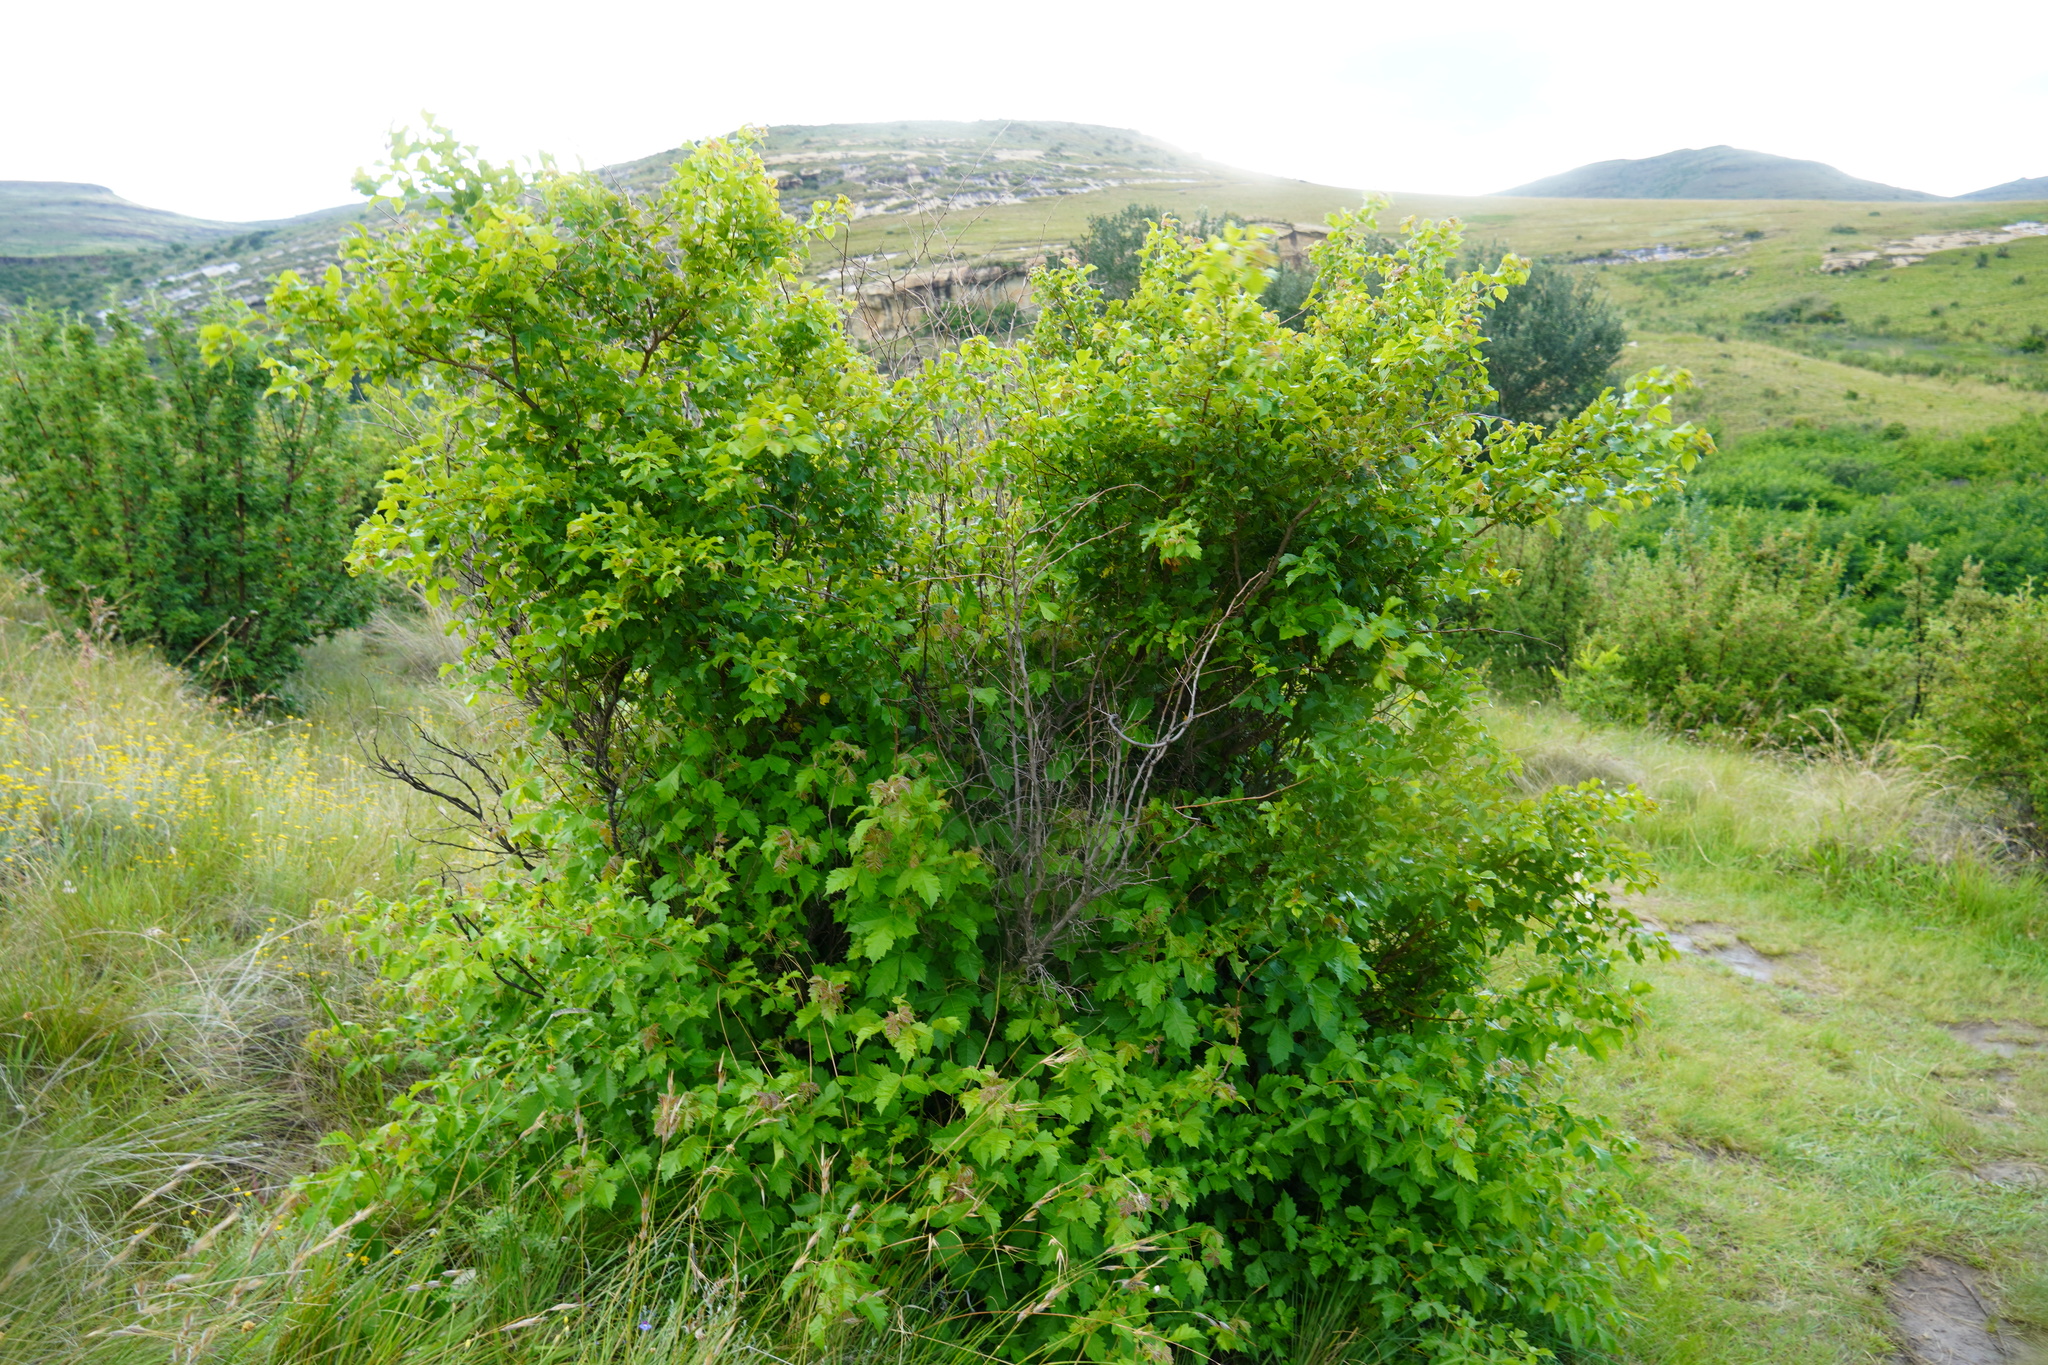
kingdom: Plantae
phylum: Tracheophyta
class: Magnoliopsida
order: Sapindales
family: Anacardiaceae
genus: Searsia
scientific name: Searsia dentata
